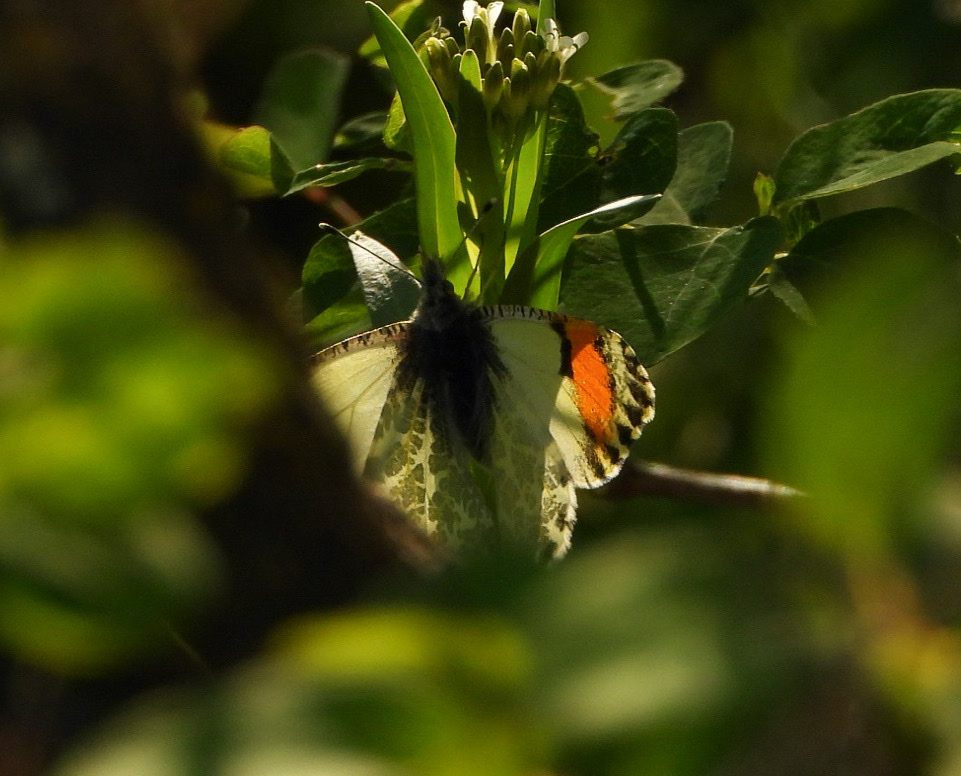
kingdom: Animalia
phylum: Arthropoda
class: Insecta
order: Lepidoptera
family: Pieridae
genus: Anthocharis
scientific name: Anthocharis julia
